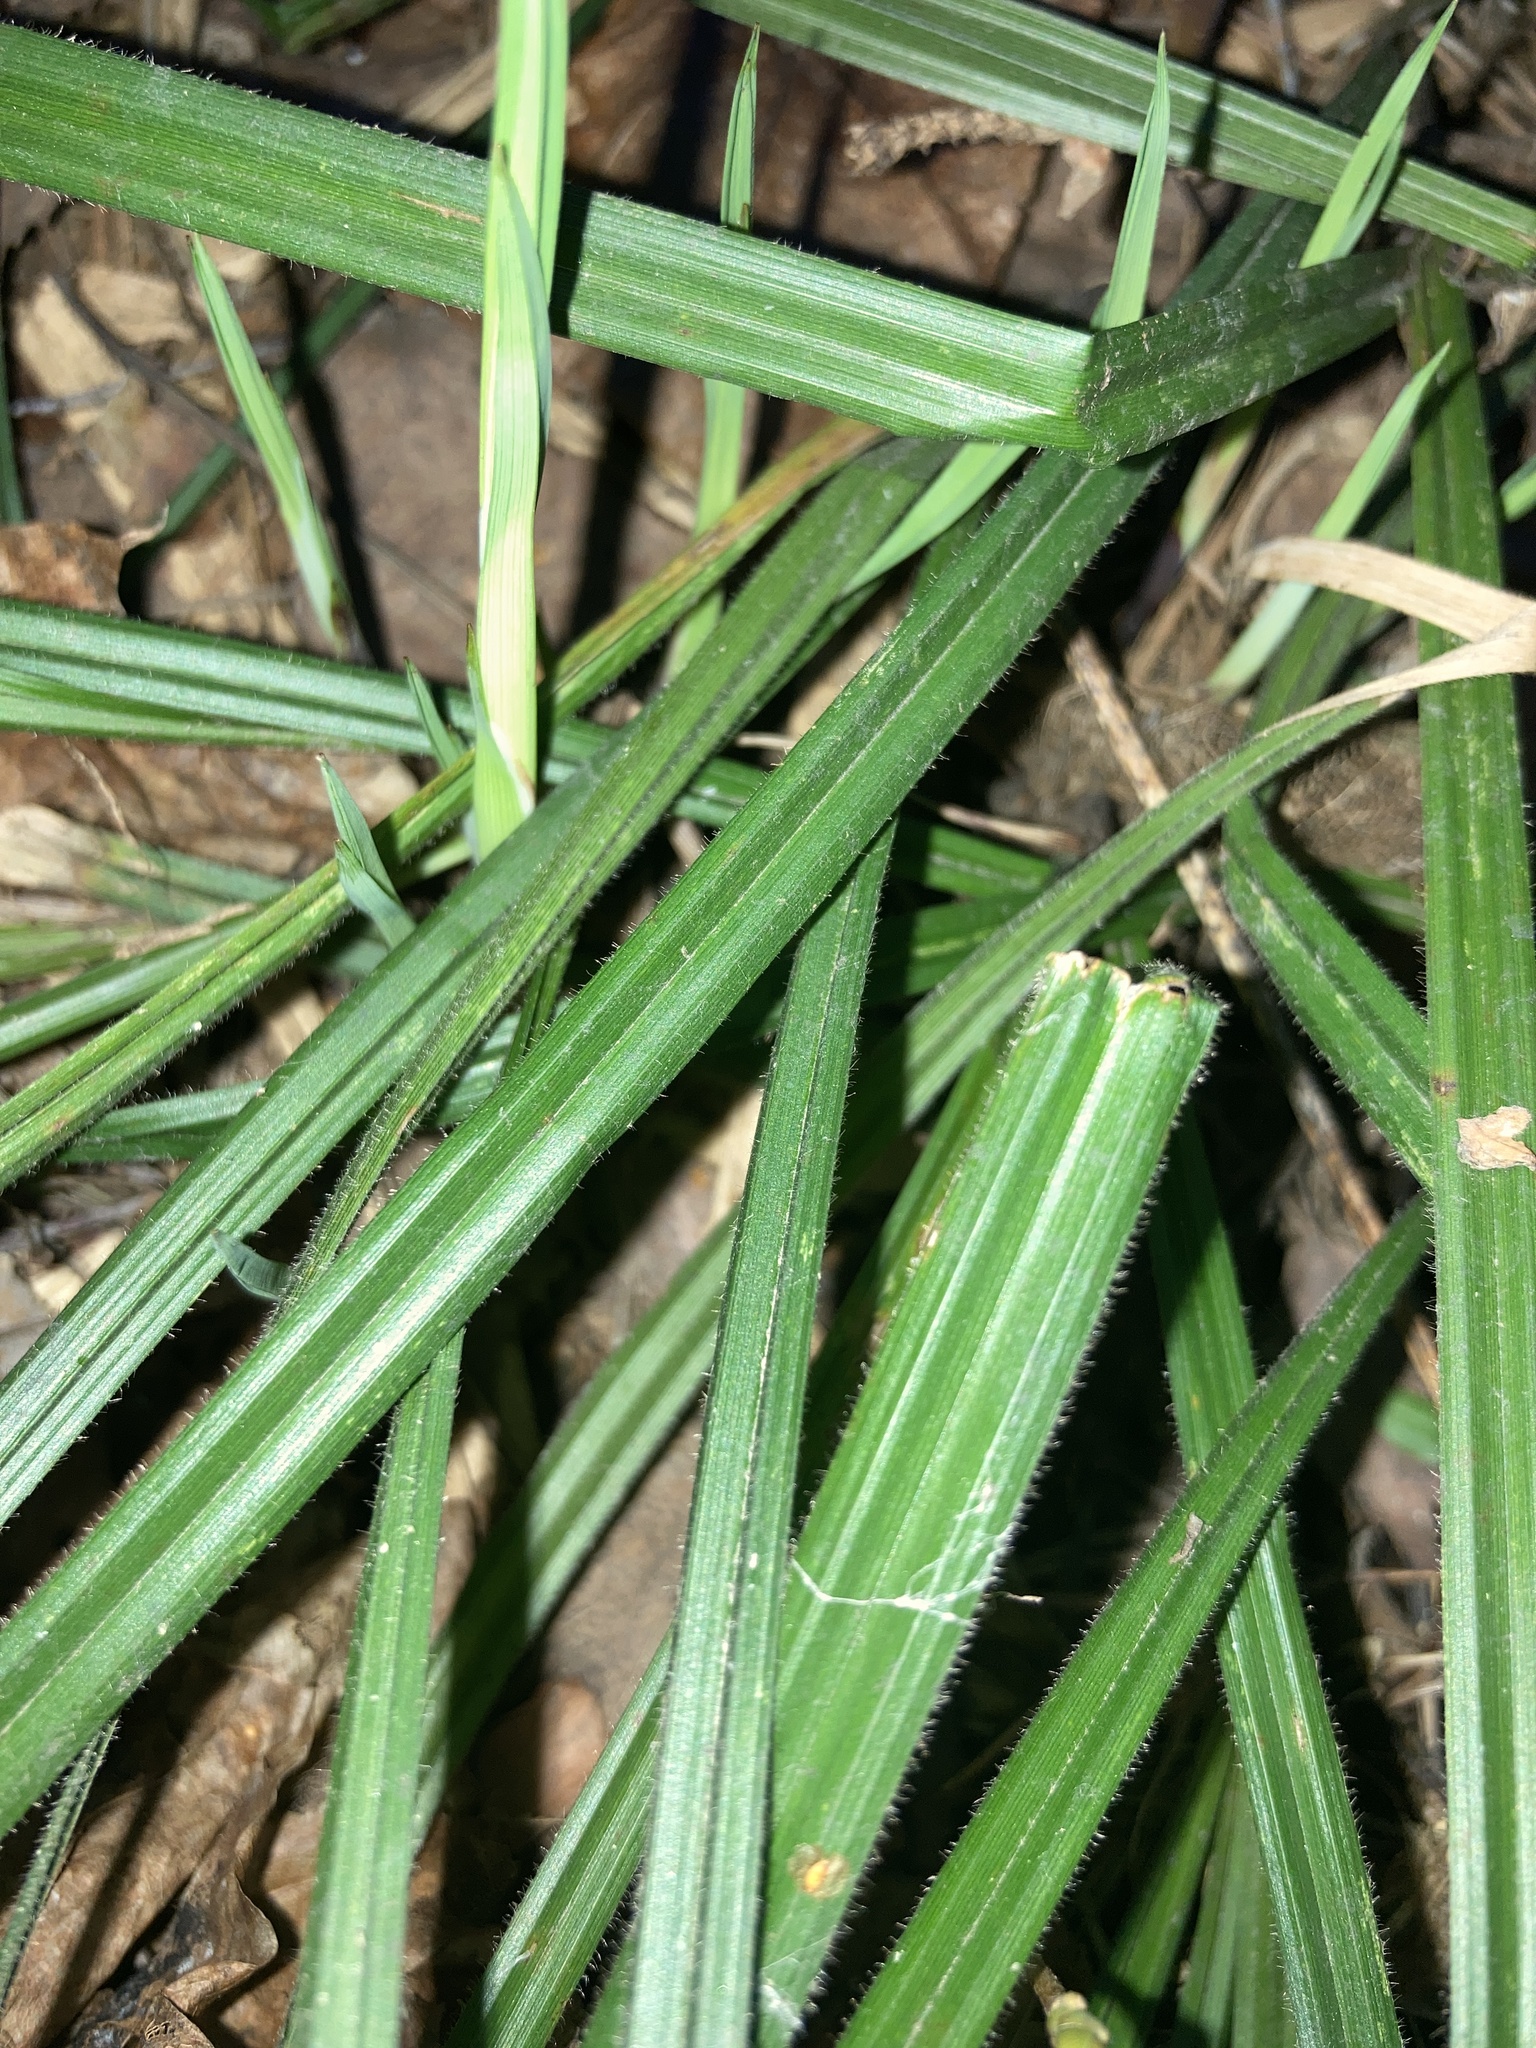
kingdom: Plantae
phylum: Tracheophyta
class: Liliopsida
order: Poales
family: Cyperaceae
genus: Carex
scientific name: Carex pilosa
